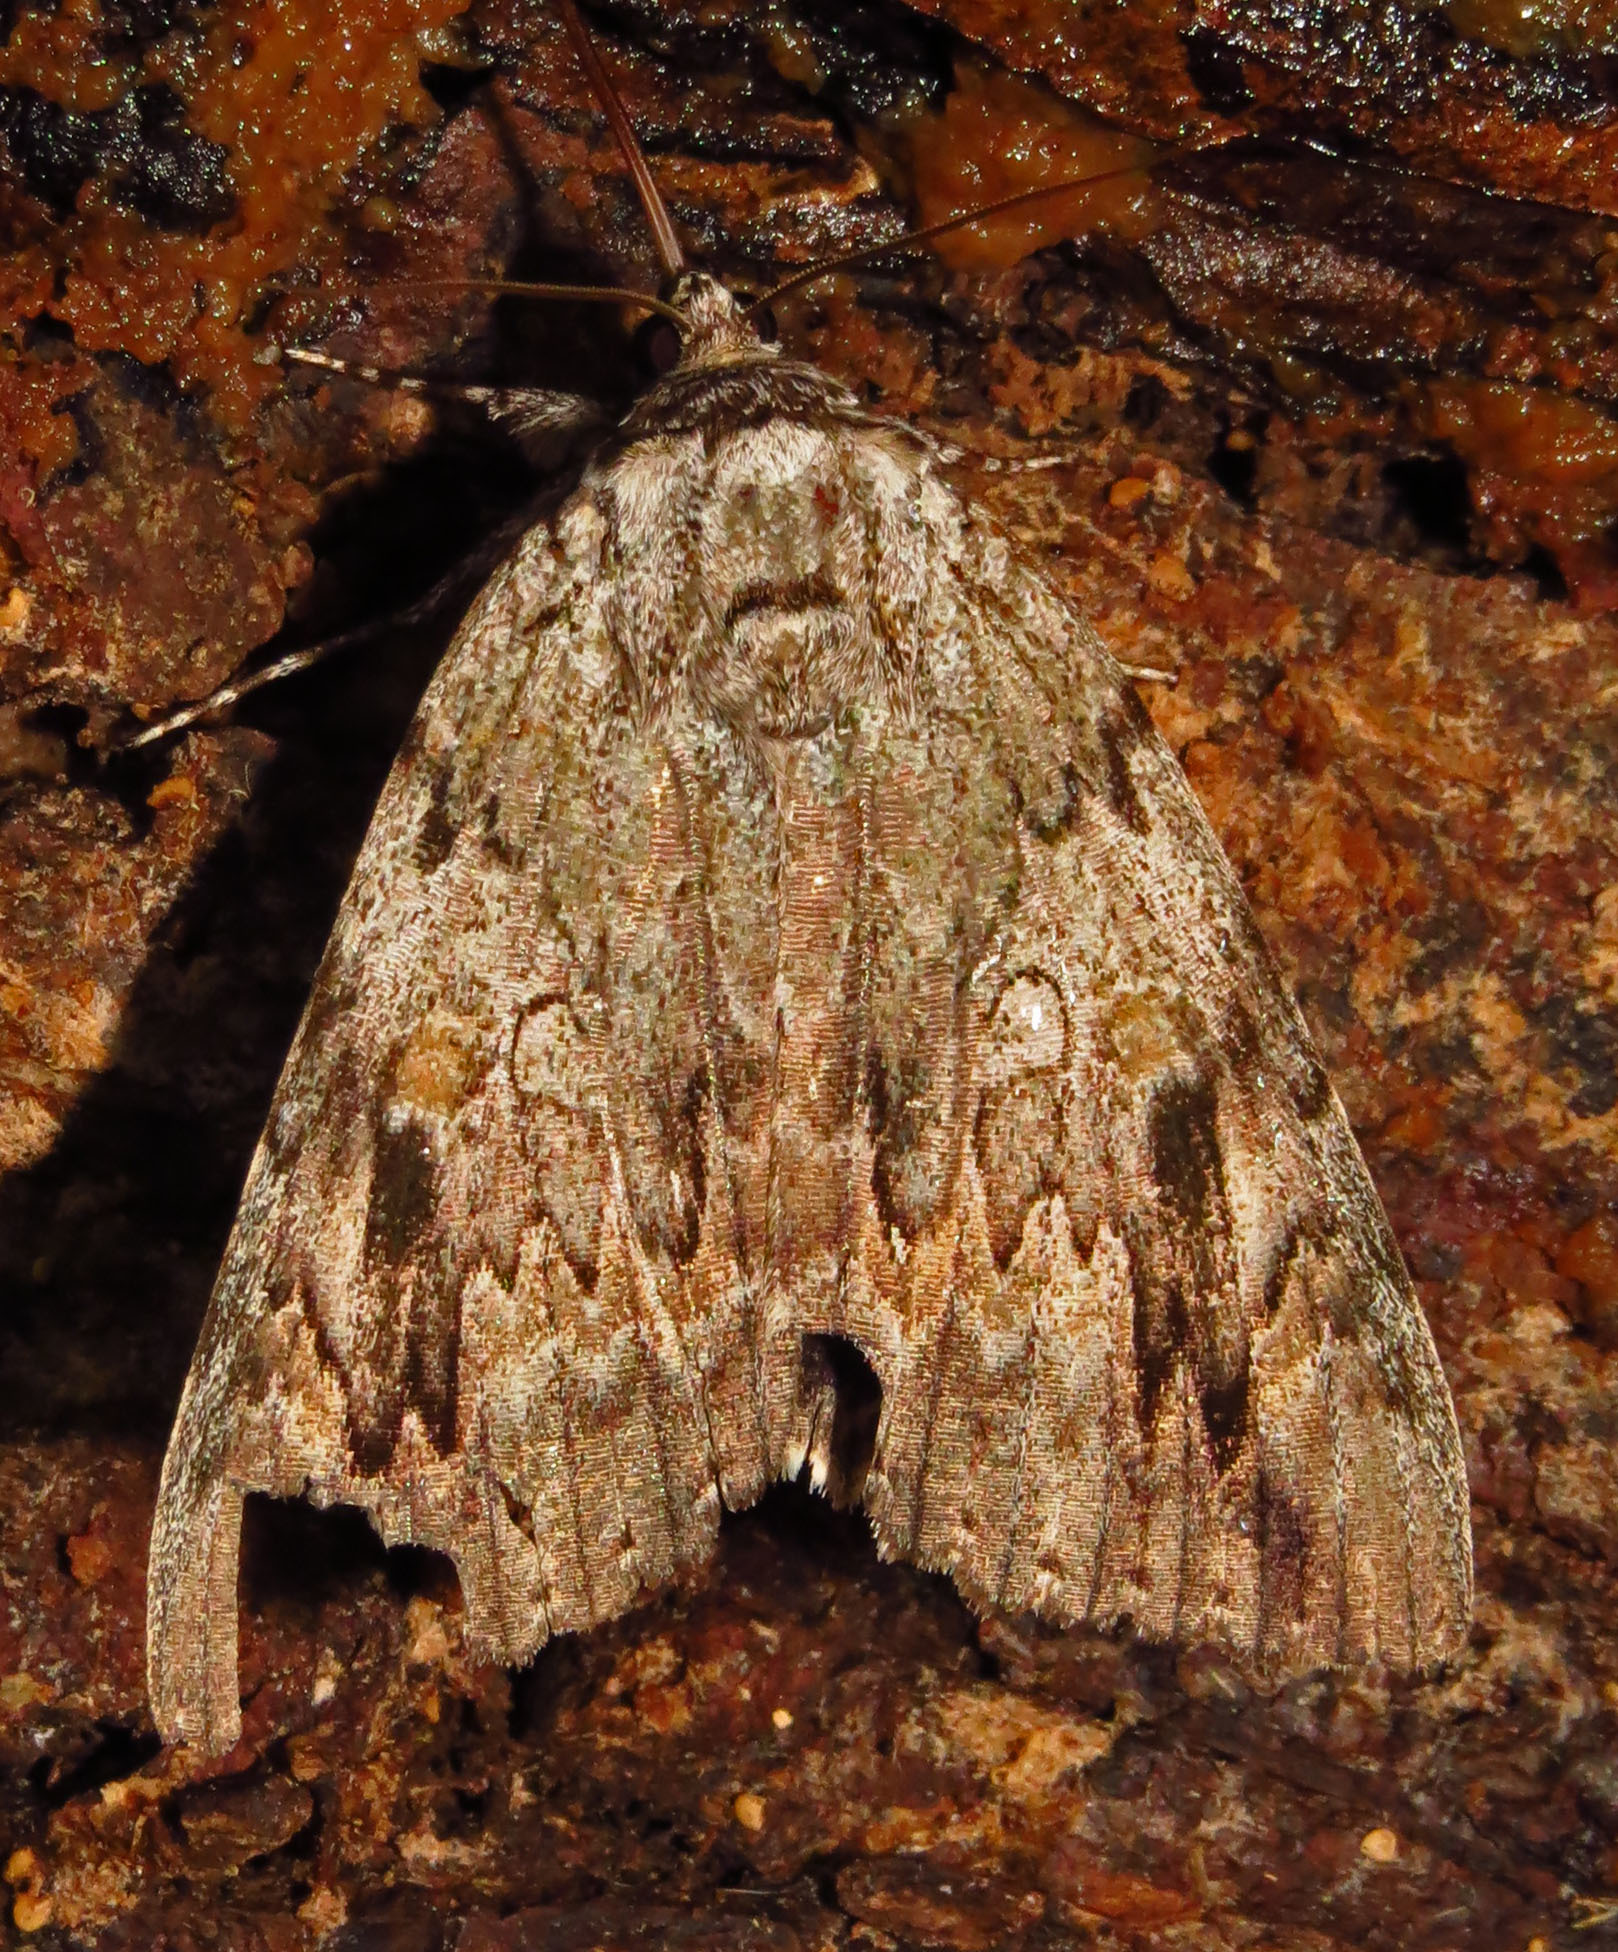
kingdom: Animalia
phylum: Arthropoda
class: Insecta
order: Lepidoptera
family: Erebidae
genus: Catocala
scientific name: Catocala maestosa
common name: Sad underwing
